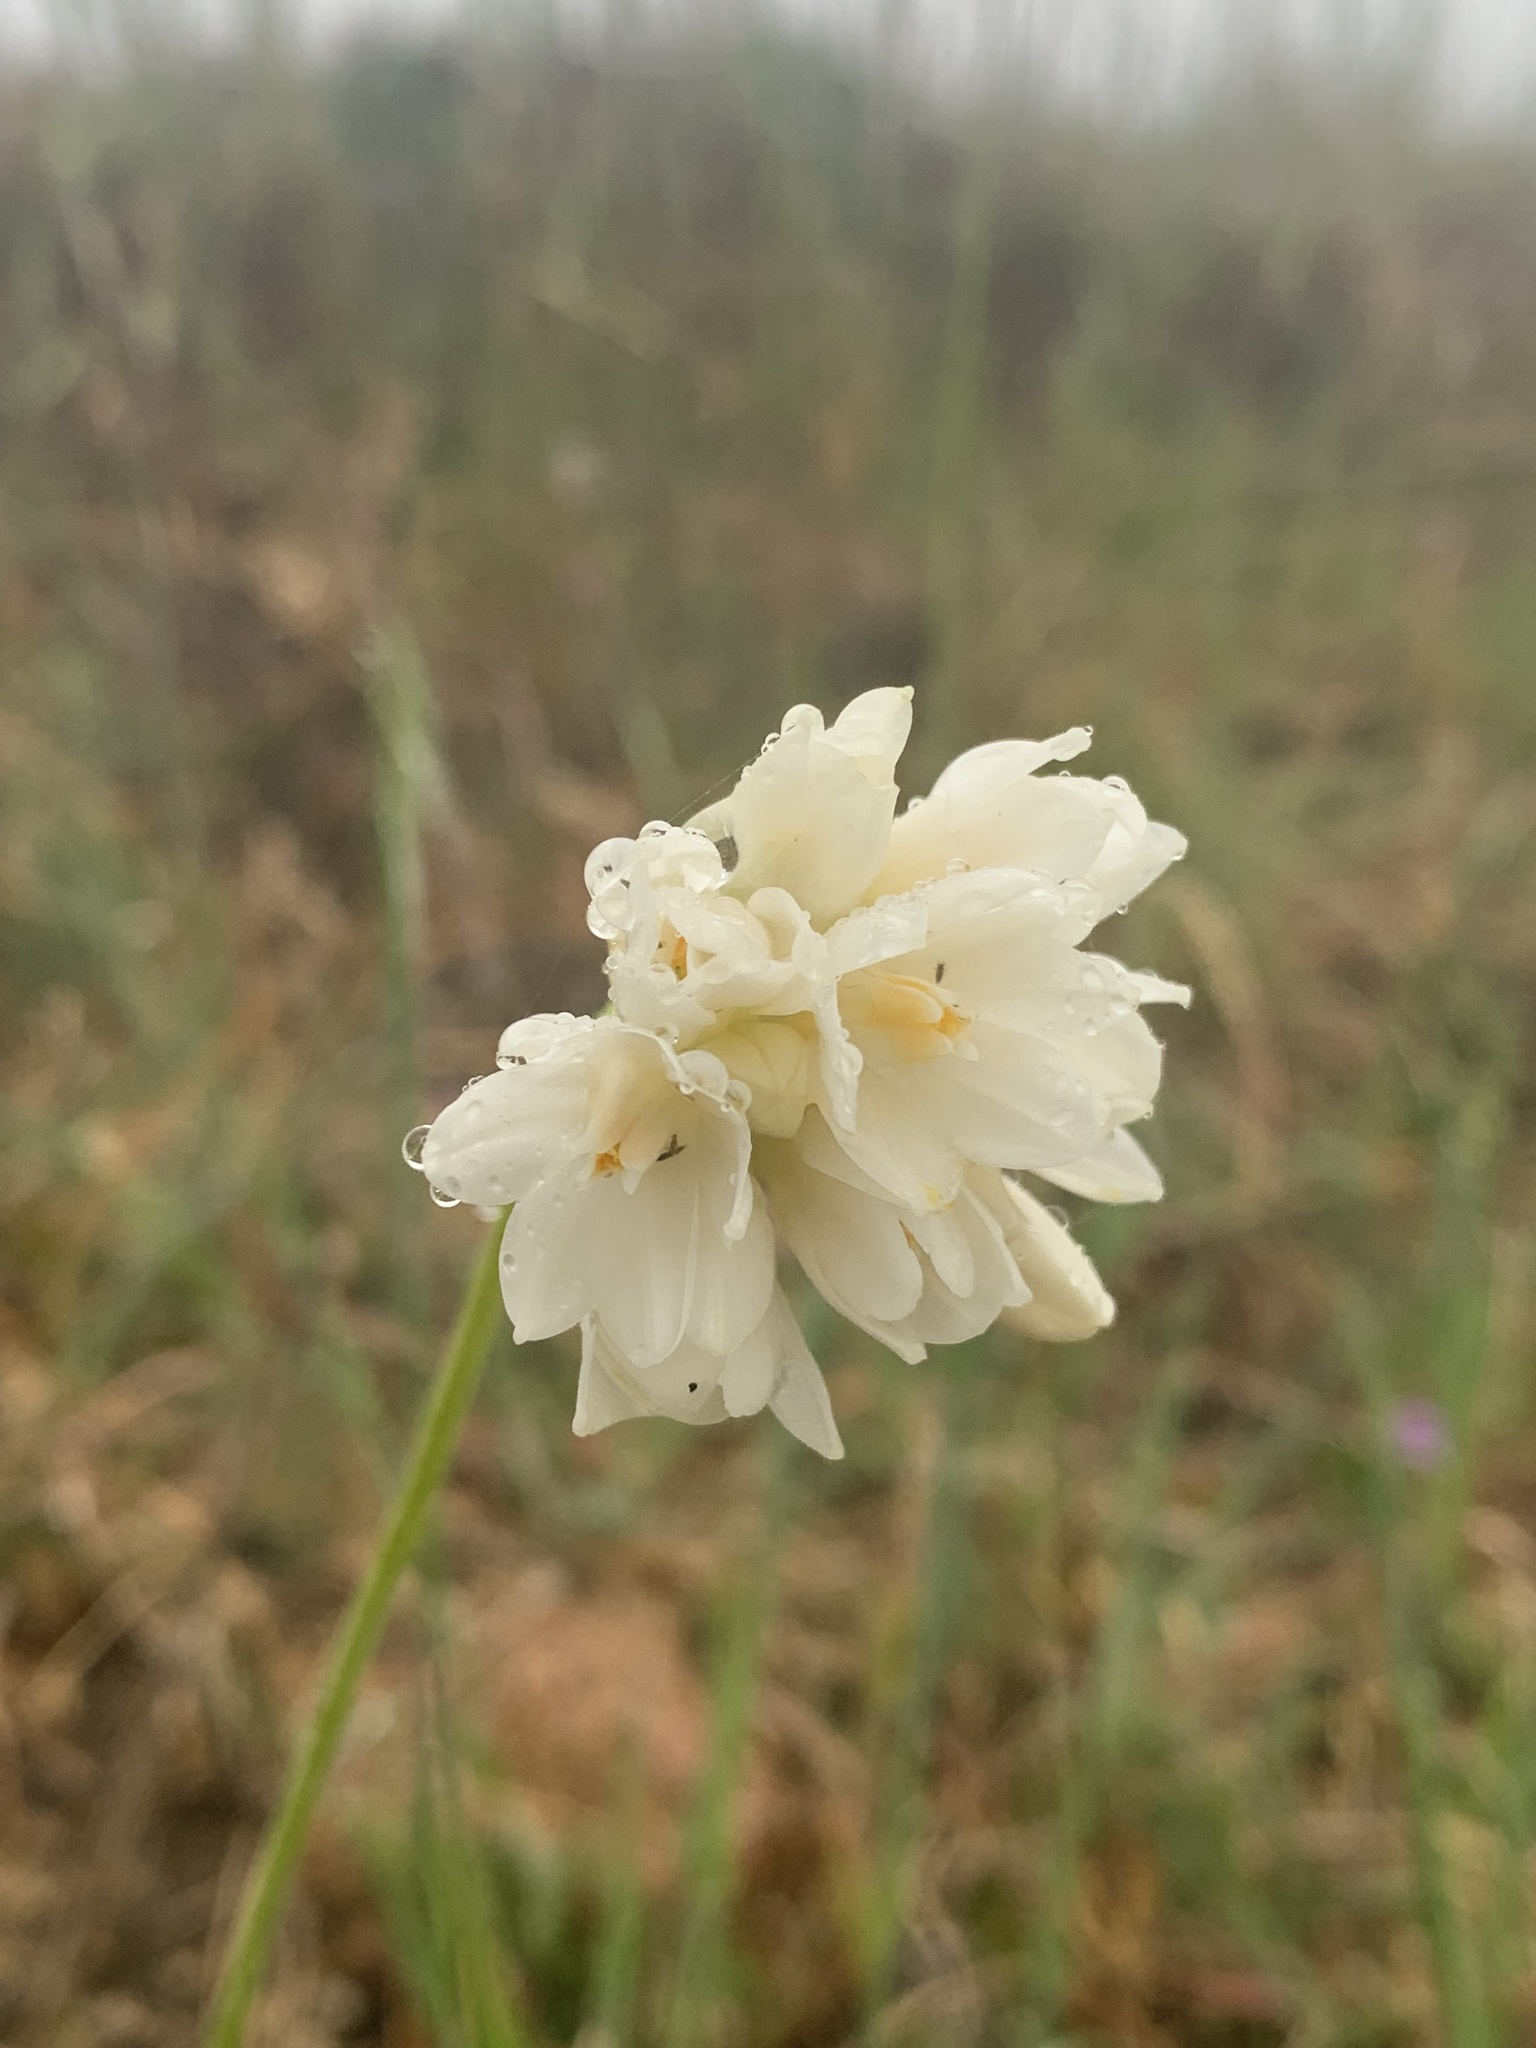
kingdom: Plantae
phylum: Tracheophyta
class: Liliopsida
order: Asparagales
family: Asparagaceae
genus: Dipterostemon
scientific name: Dipterostemon capitatus
